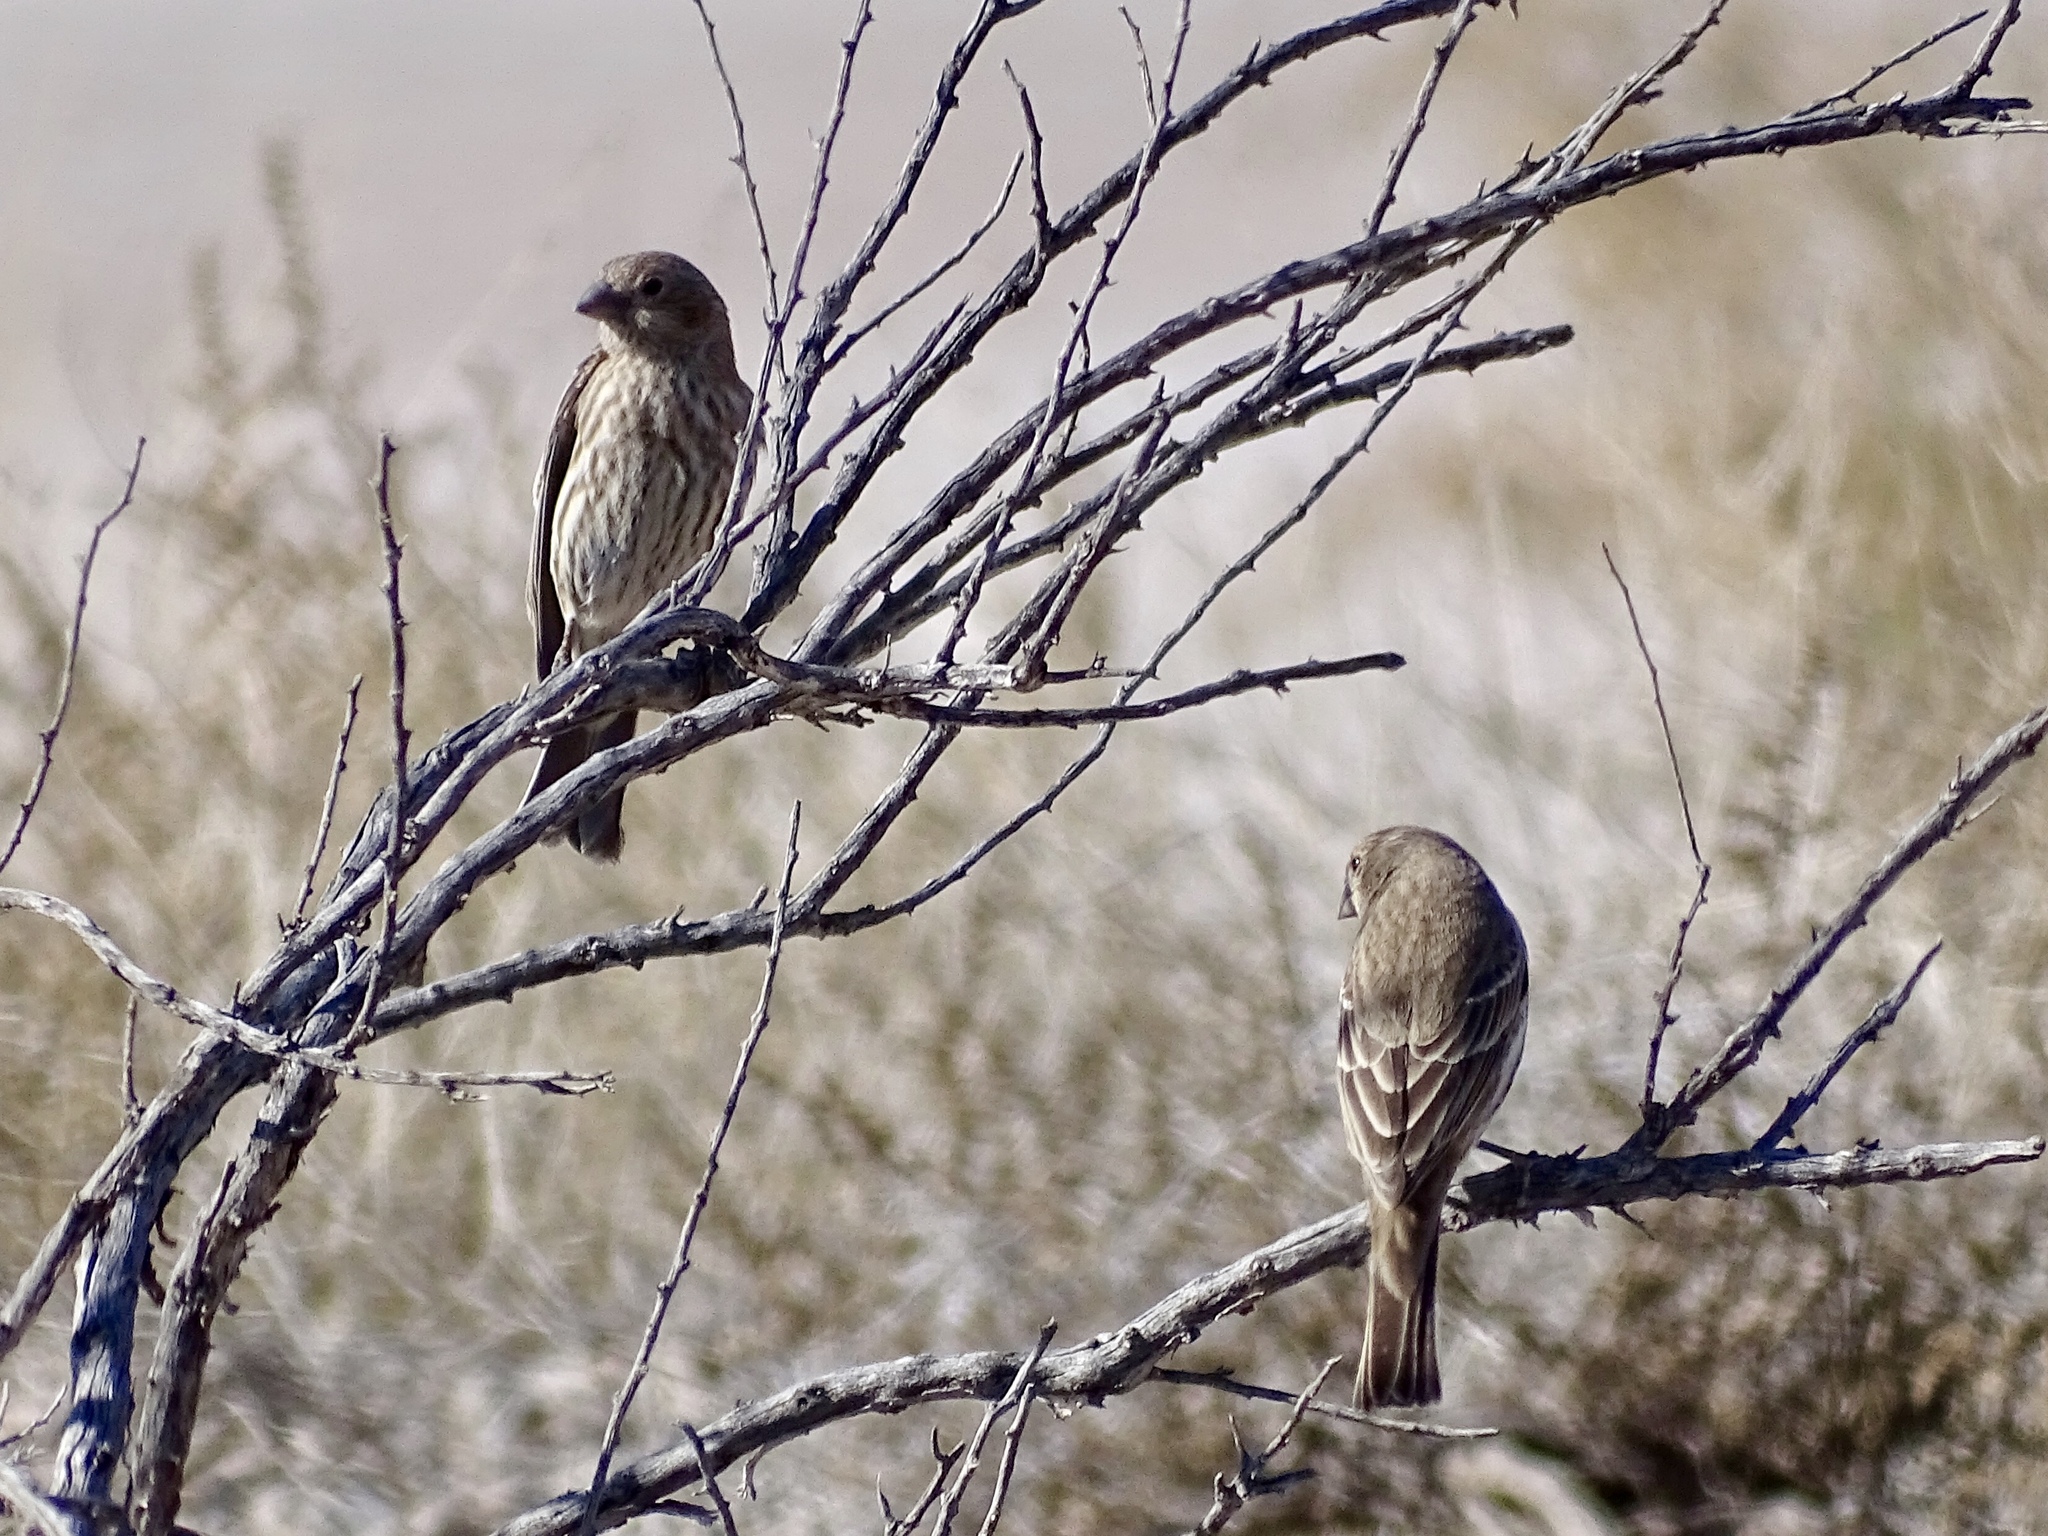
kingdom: Animalia
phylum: Chordata
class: Aves
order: Passeriformes
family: Fringillidae
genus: Haemorhous
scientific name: Haemorhous mexicanus
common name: House finch
